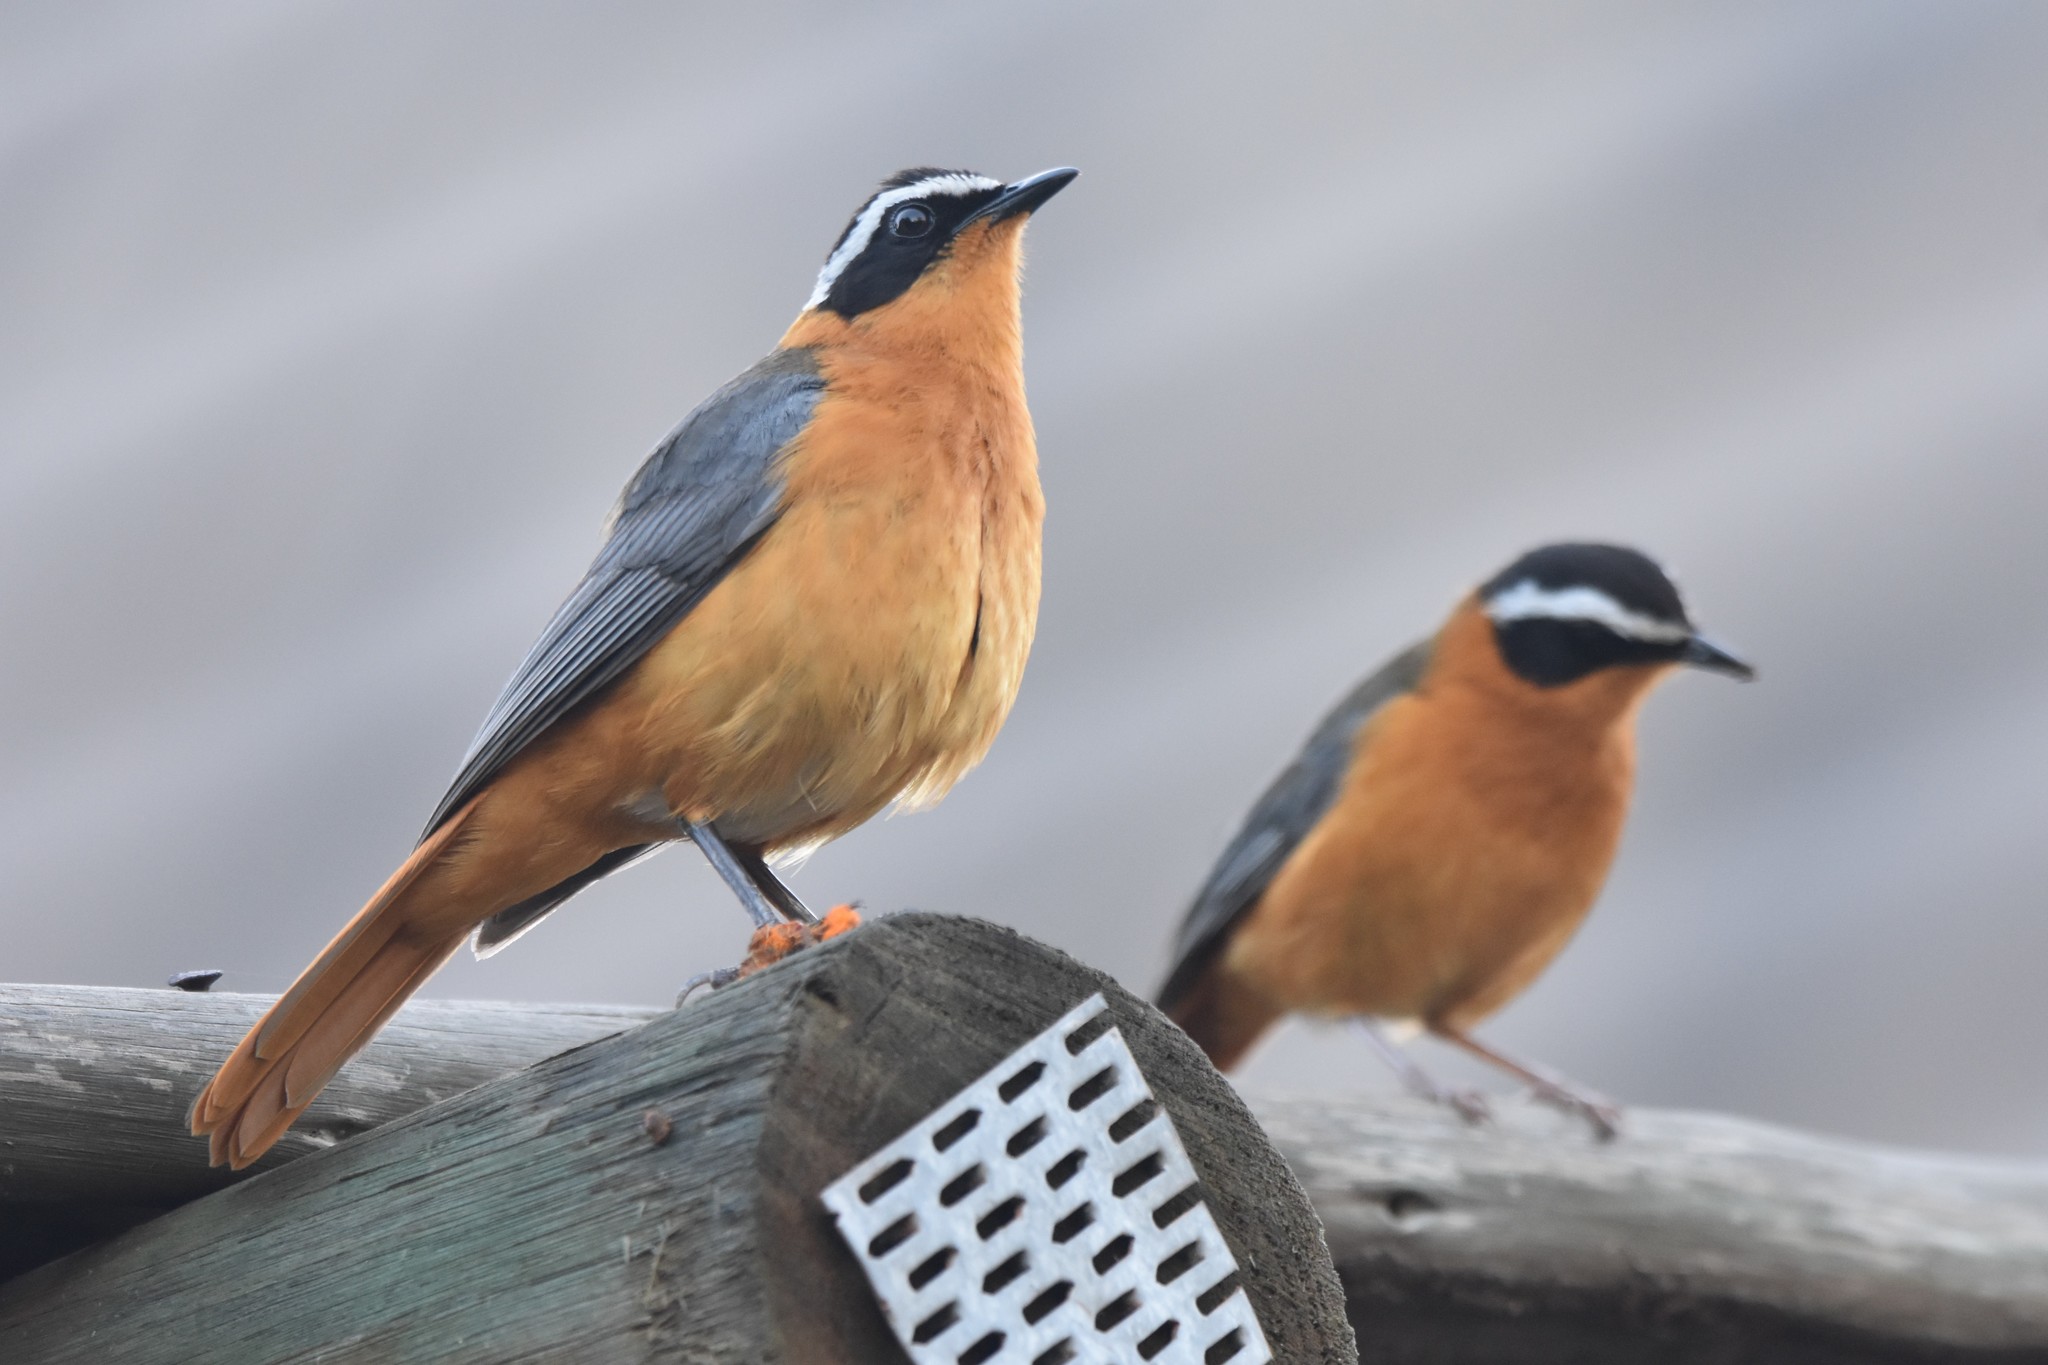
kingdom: Animalia
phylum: Chordata
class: Aves
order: Passeriformes
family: Muscicapidae
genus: Cossypha
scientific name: Cossypha heuglini
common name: White-browed robin-chat
